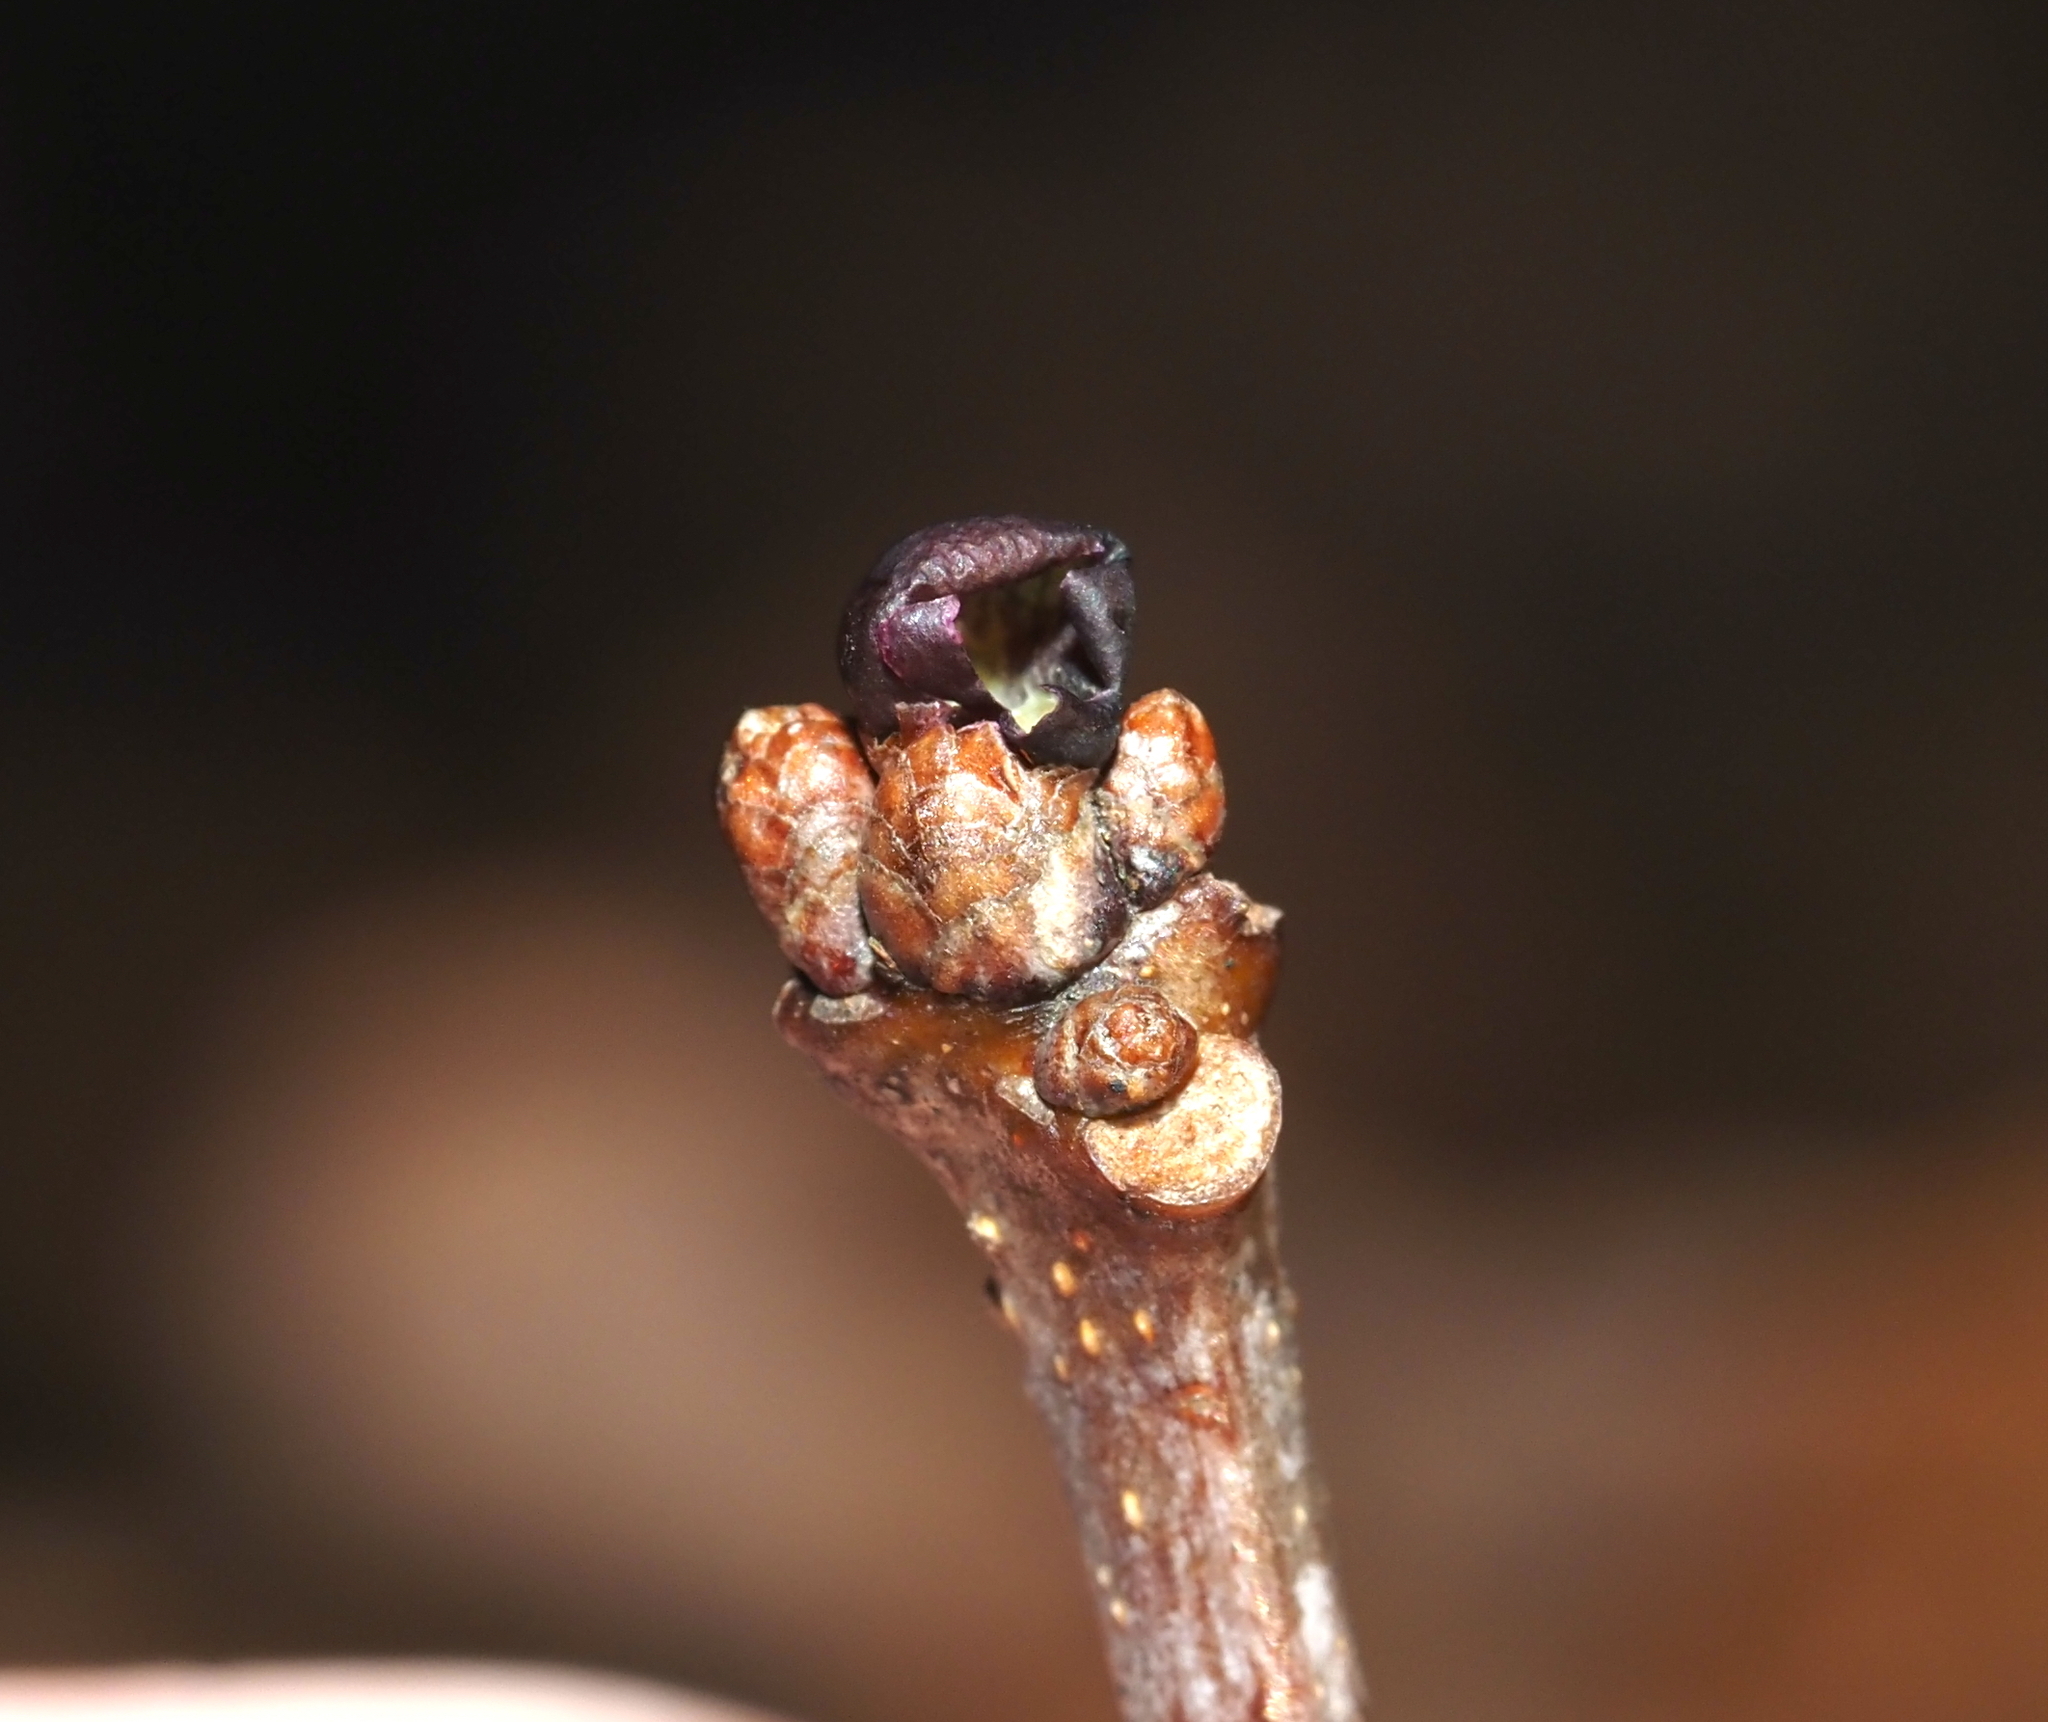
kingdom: Animalia
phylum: Arthropoda
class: Insecta
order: Hymenoptera
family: Cynipidae
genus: Neuroterus
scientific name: Neuroterus
